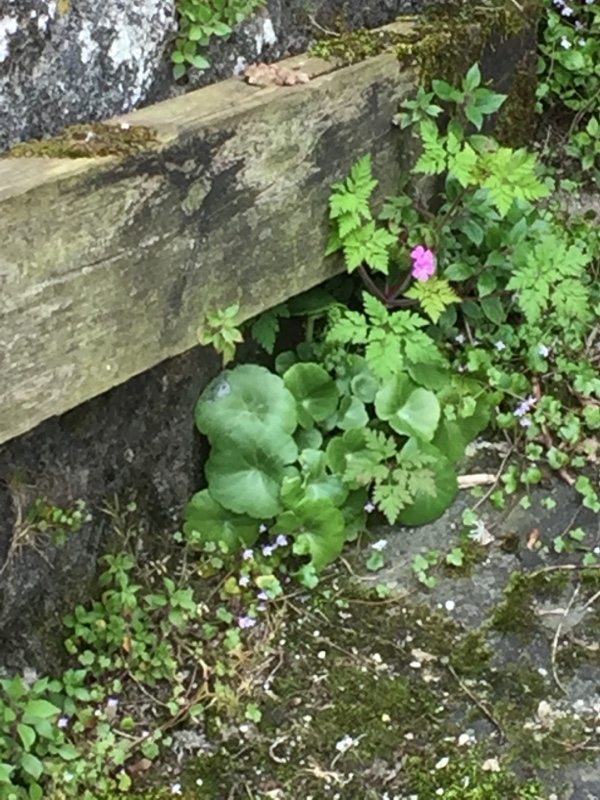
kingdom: Plantae
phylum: Tracheophyta
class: Magnoliopsida
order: Geraniales
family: Geraniaceae
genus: Geranium
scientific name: Geranium robertianum
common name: Herb-robert
